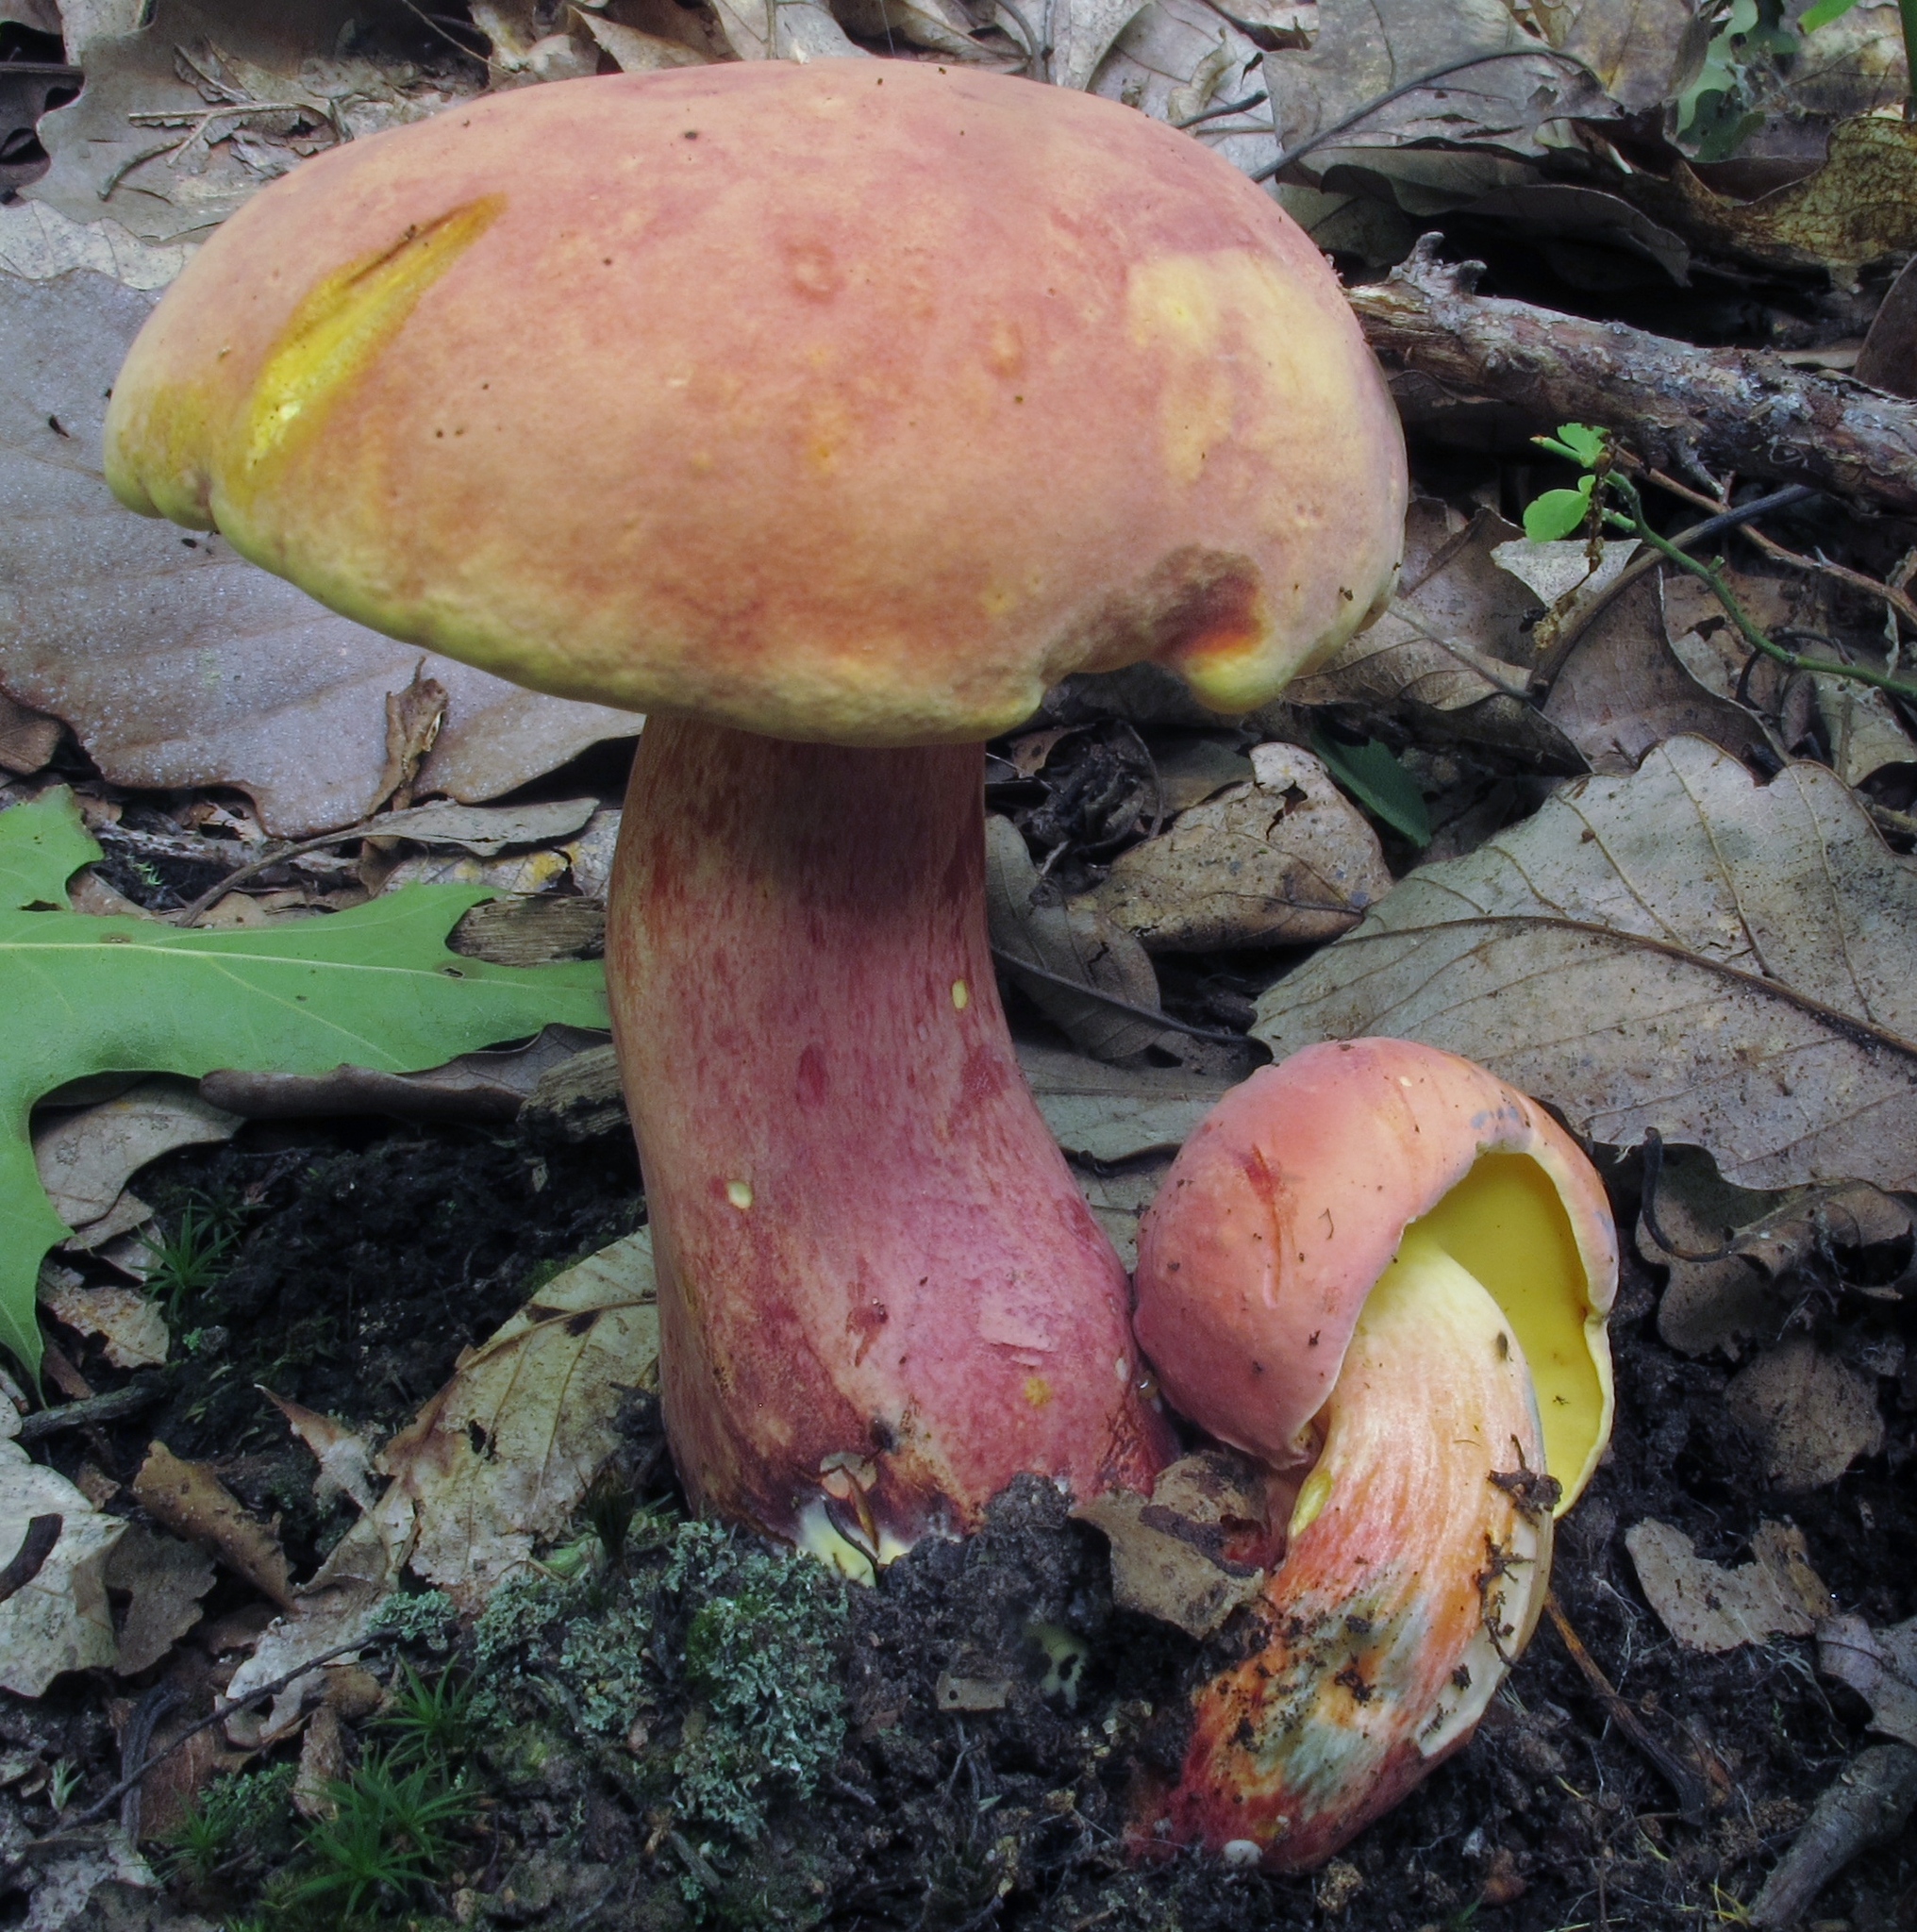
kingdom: Fungi
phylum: Basidiomycota
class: Agaricomycetes
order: Boletales
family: Boletaceae
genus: Lanmaoa
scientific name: Lanmaoa pallidorosea
